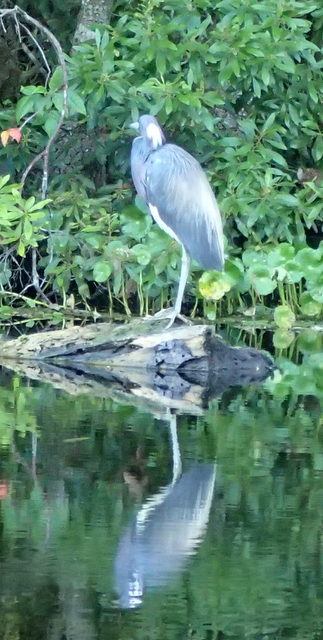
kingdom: Animalia
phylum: Chordata
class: Aves
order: Pelecaniformes
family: Ardeidae
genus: Egretta
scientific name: Egretta tricolor
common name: Tricolored heron
